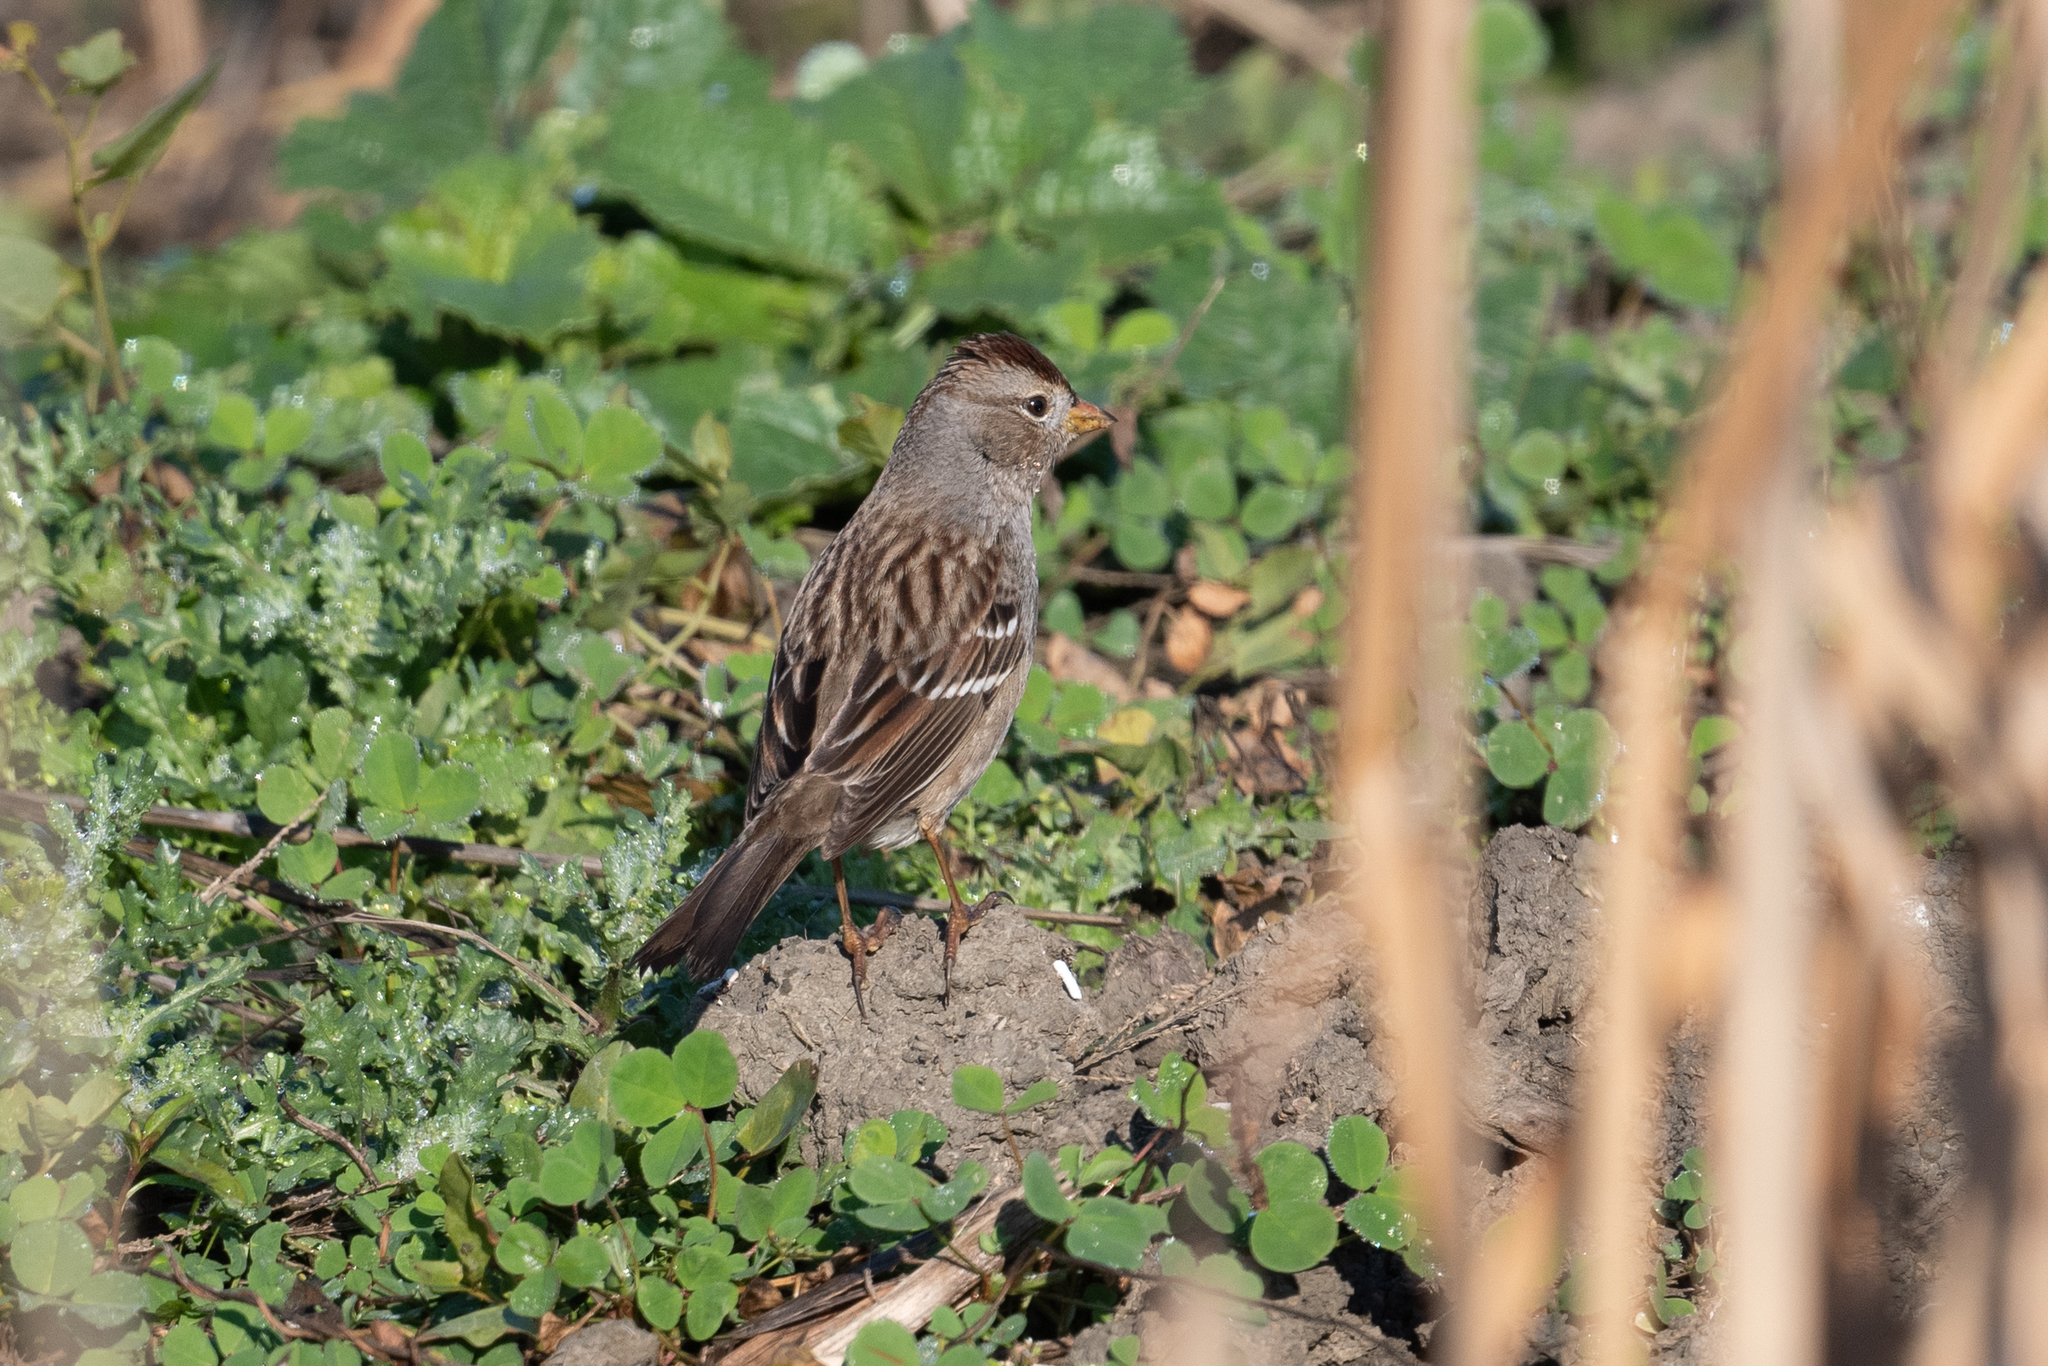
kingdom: Animalia
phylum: Chordata
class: Aves
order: Passeriformes
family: Passerellidae
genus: Zonotrichia
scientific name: Zonotrichia leucophrys
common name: White-crowned sparrow
